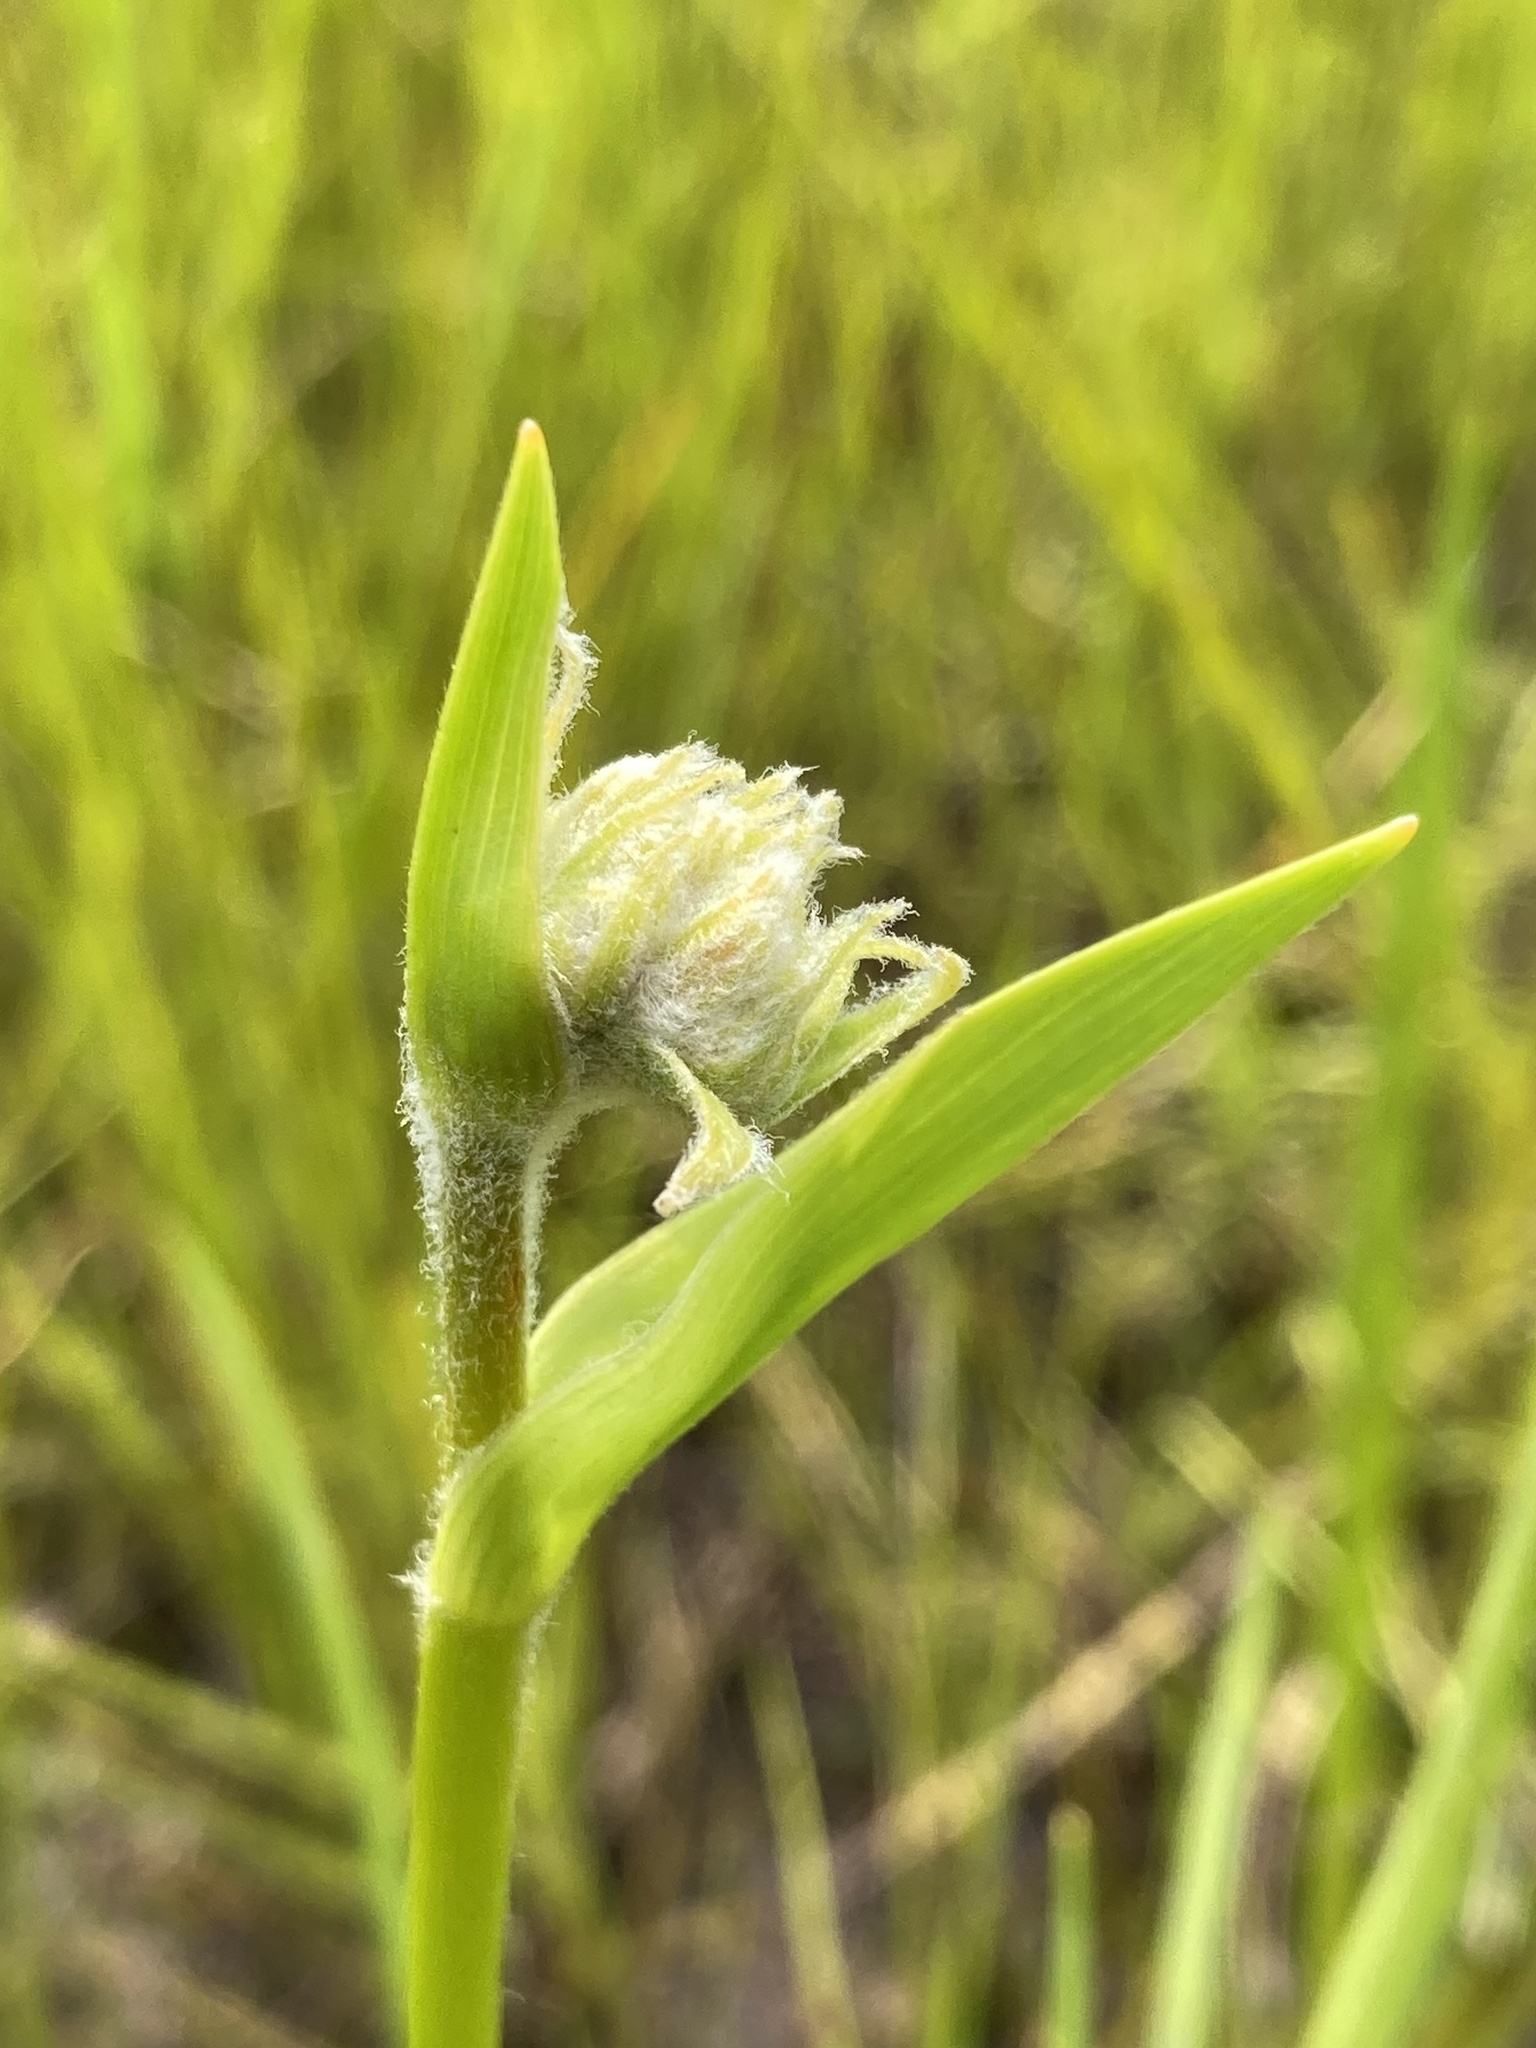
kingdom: Plantae
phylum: Tracheophyta
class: Liliopsida
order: Commelinales
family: Haemodoraceae
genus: Lachnanthes
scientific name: Lachnanthes caroliana
